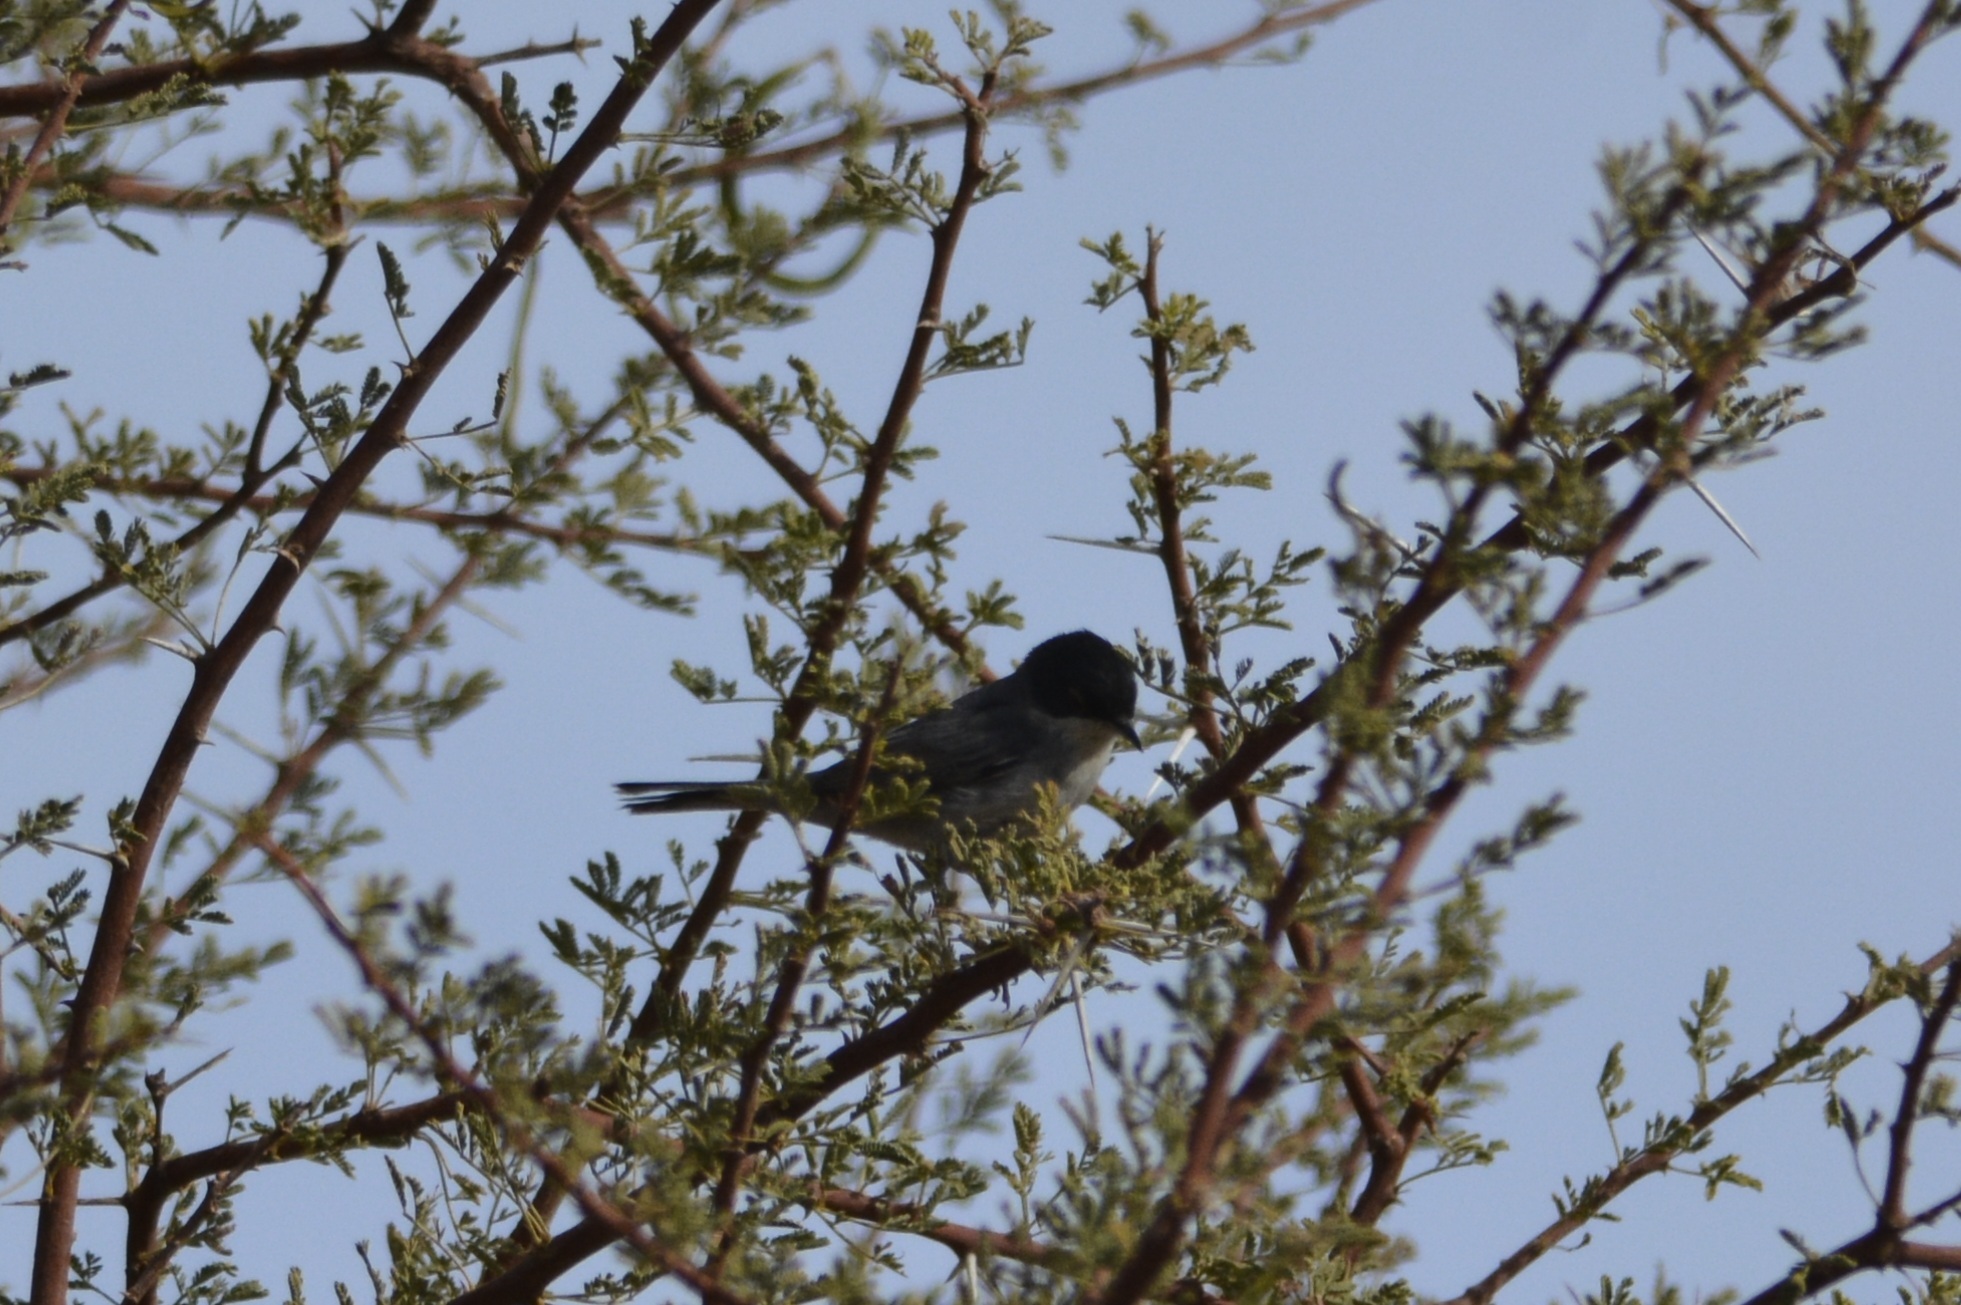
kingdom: Animalia
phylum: Chordata
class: Aves
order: Passeriformes
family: Sylviidae
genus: Curruca
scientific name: Curruca melanocephala
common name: Sardinian warbler
